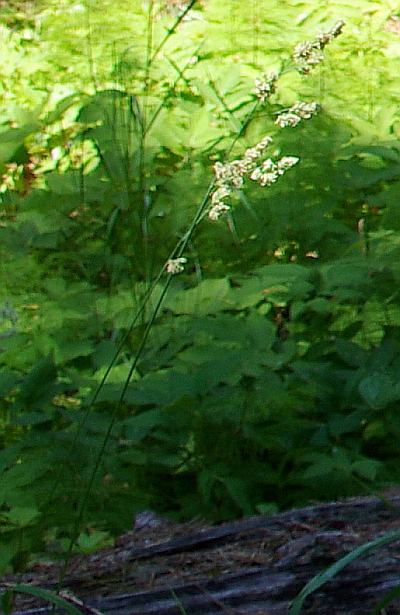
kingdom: Plantae
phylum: Tracheophyta
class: Liliopsida
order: Poales
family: Poaceae
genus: Dactylis
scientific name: Dactylis glomerata
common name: Orchardgrass
